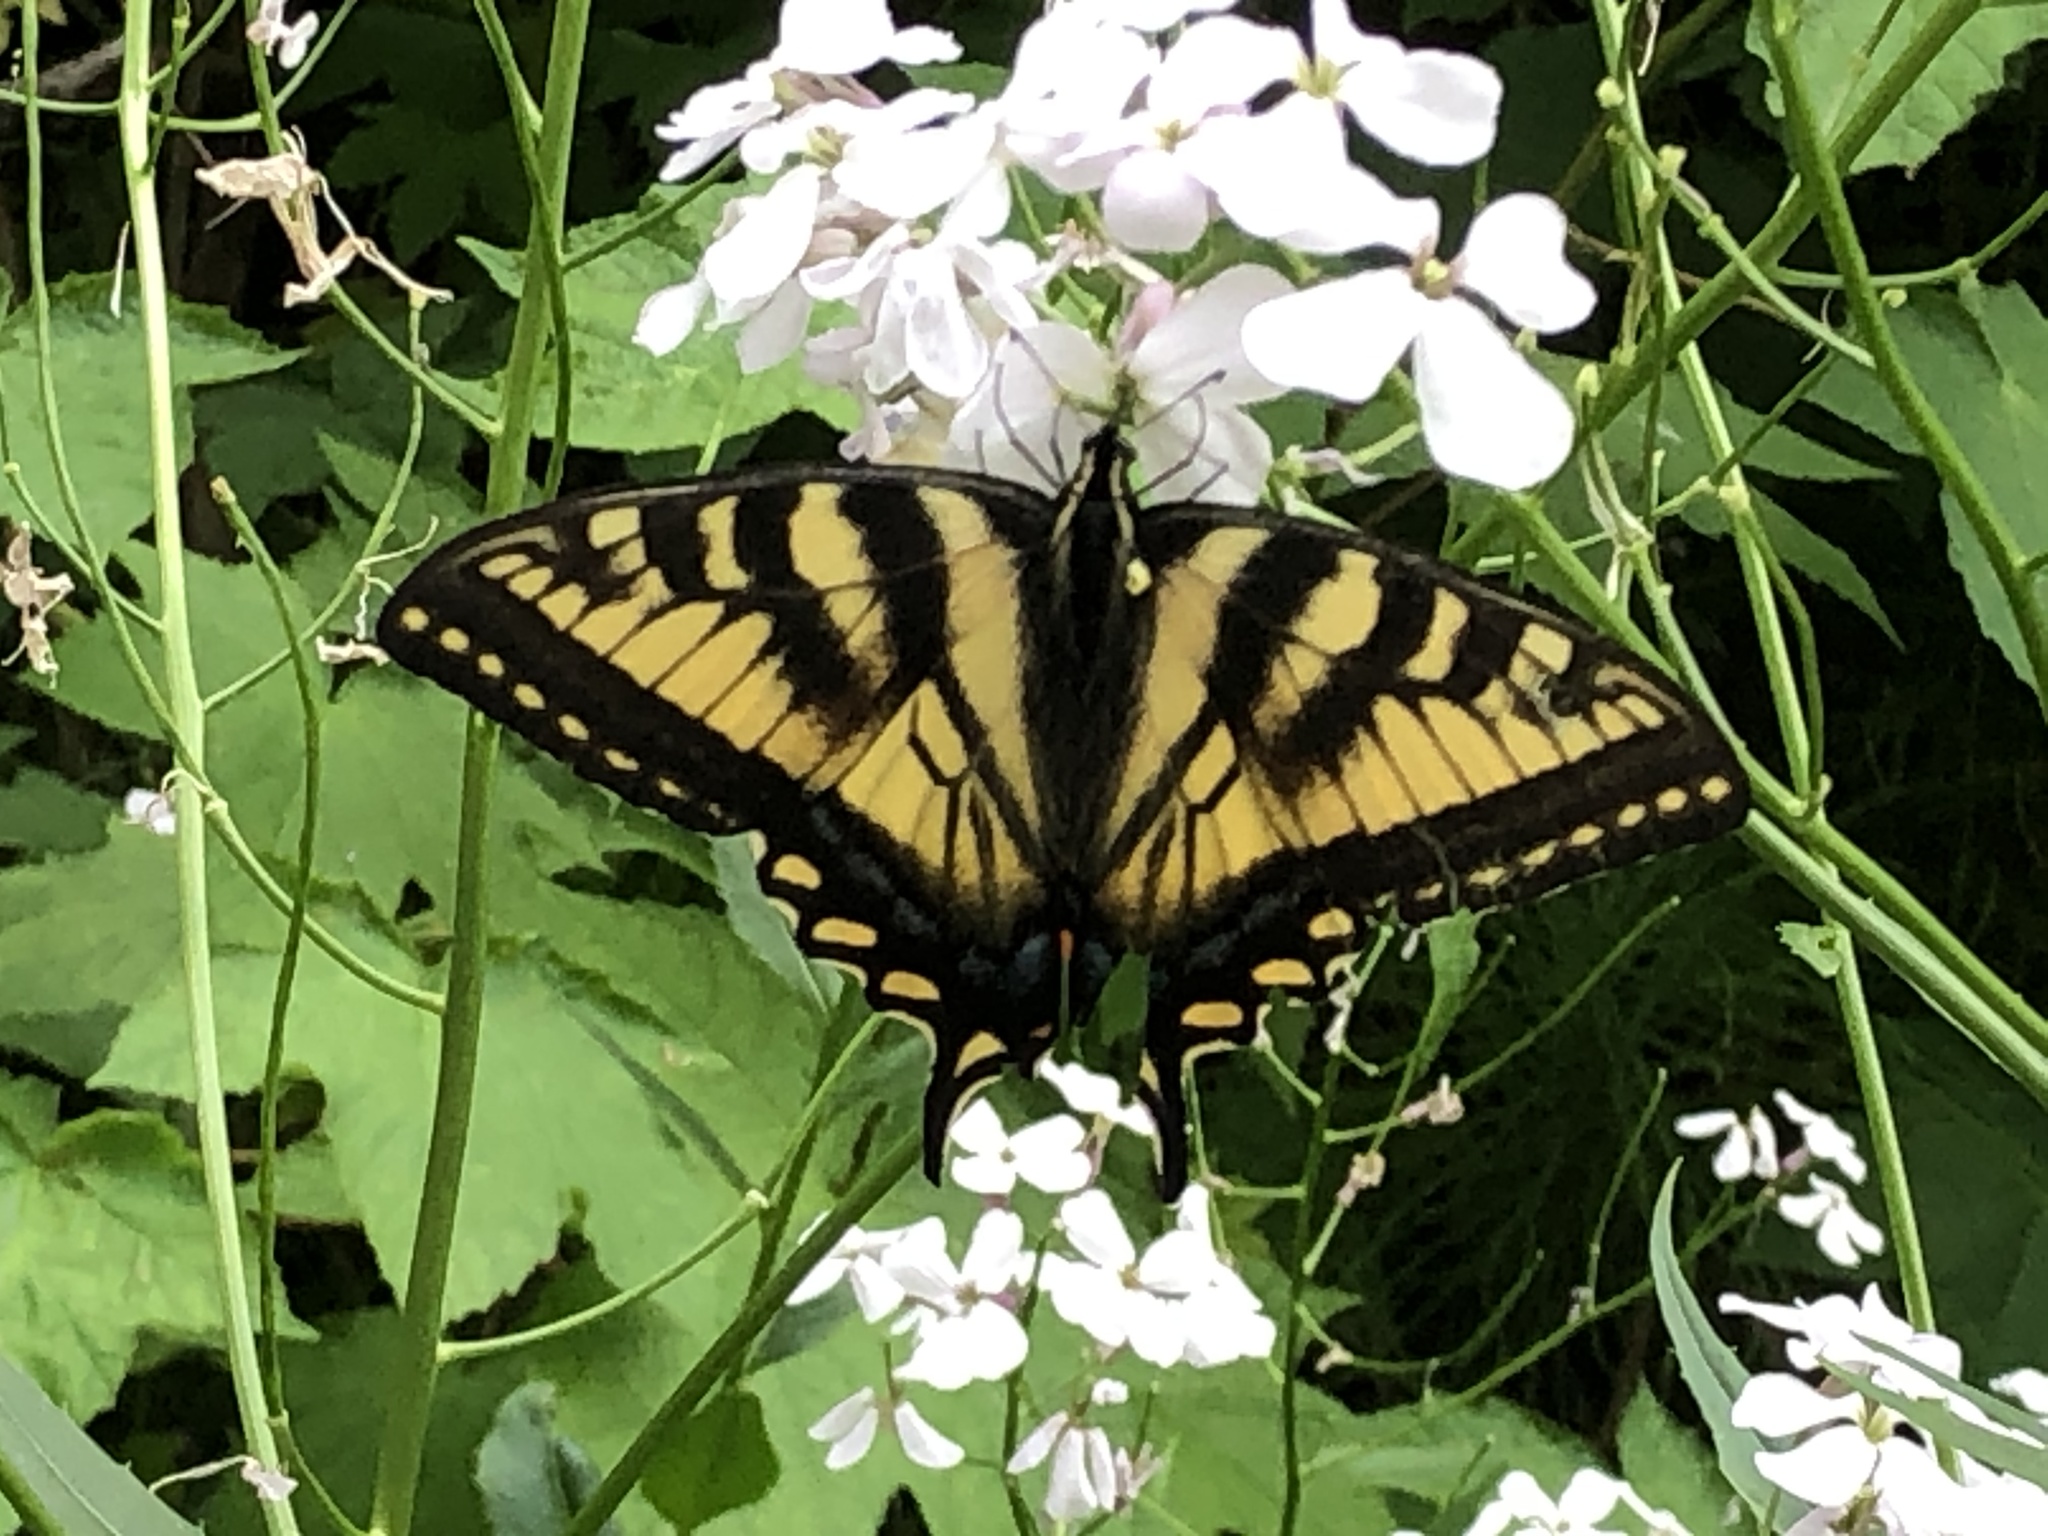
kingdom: Animalia
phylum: Arthropoda
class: Insecta
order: Lepidoptera
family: Papilionidae
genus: Papilio
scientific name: Papilio canadensis
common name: Canadian tiger swallowtail
